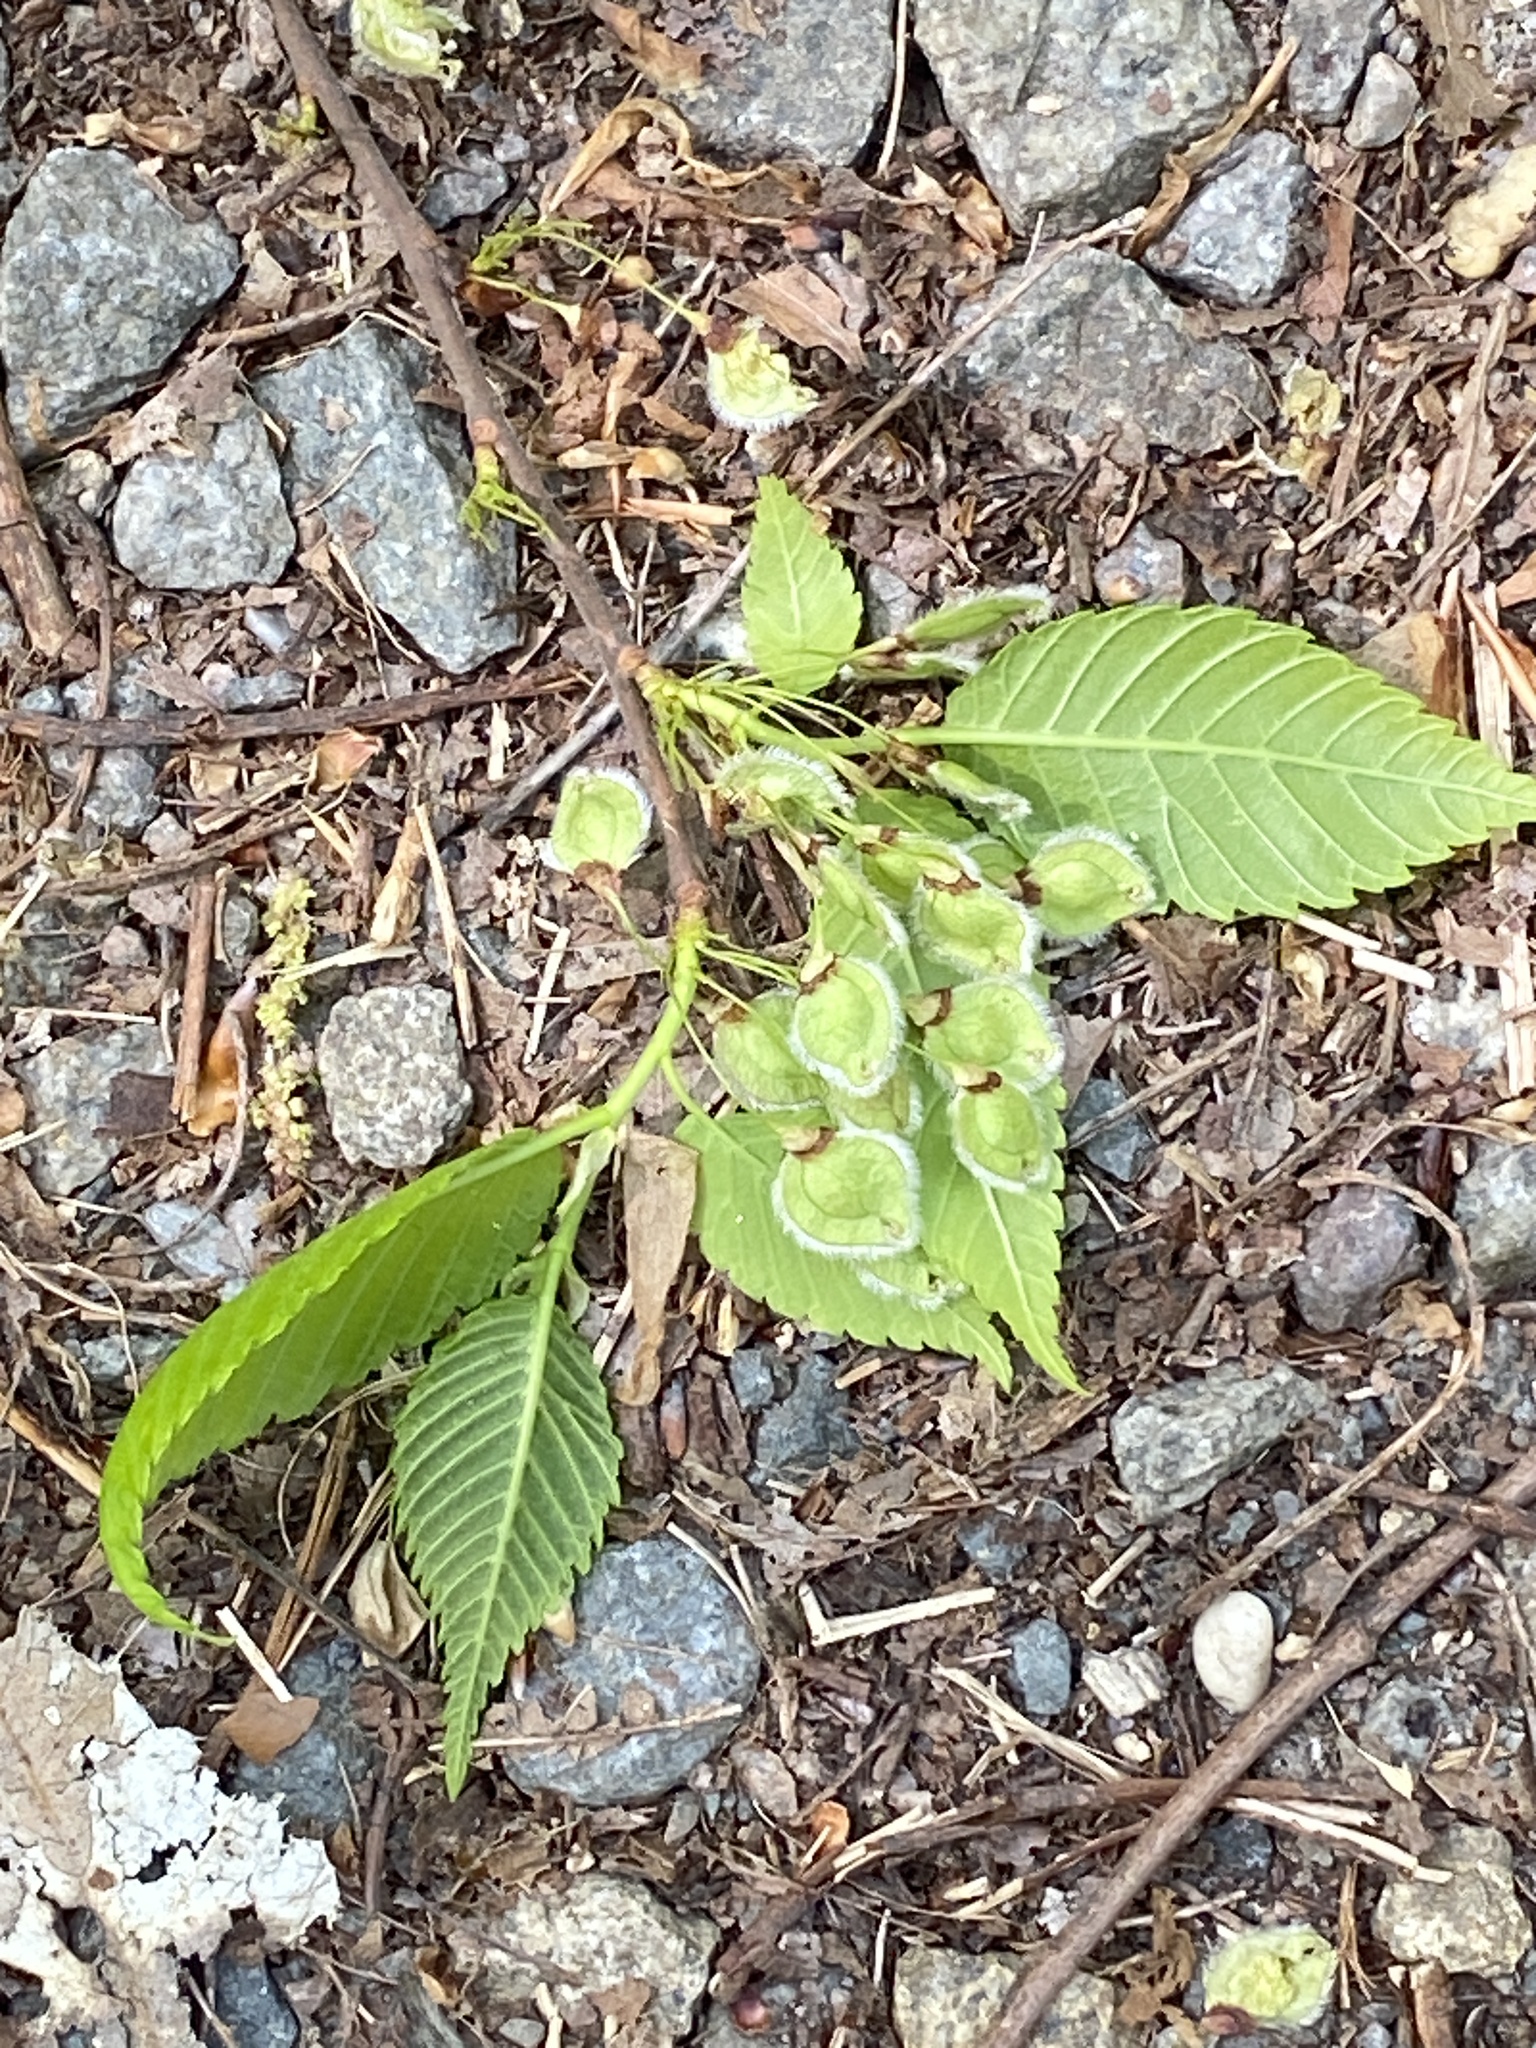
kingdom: Plantae
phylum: Tracheophyta
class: Magnoliopsida
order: Rosales
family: Ulmaceae
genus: Ulmus
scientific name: Ulmus americana
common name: American elm
